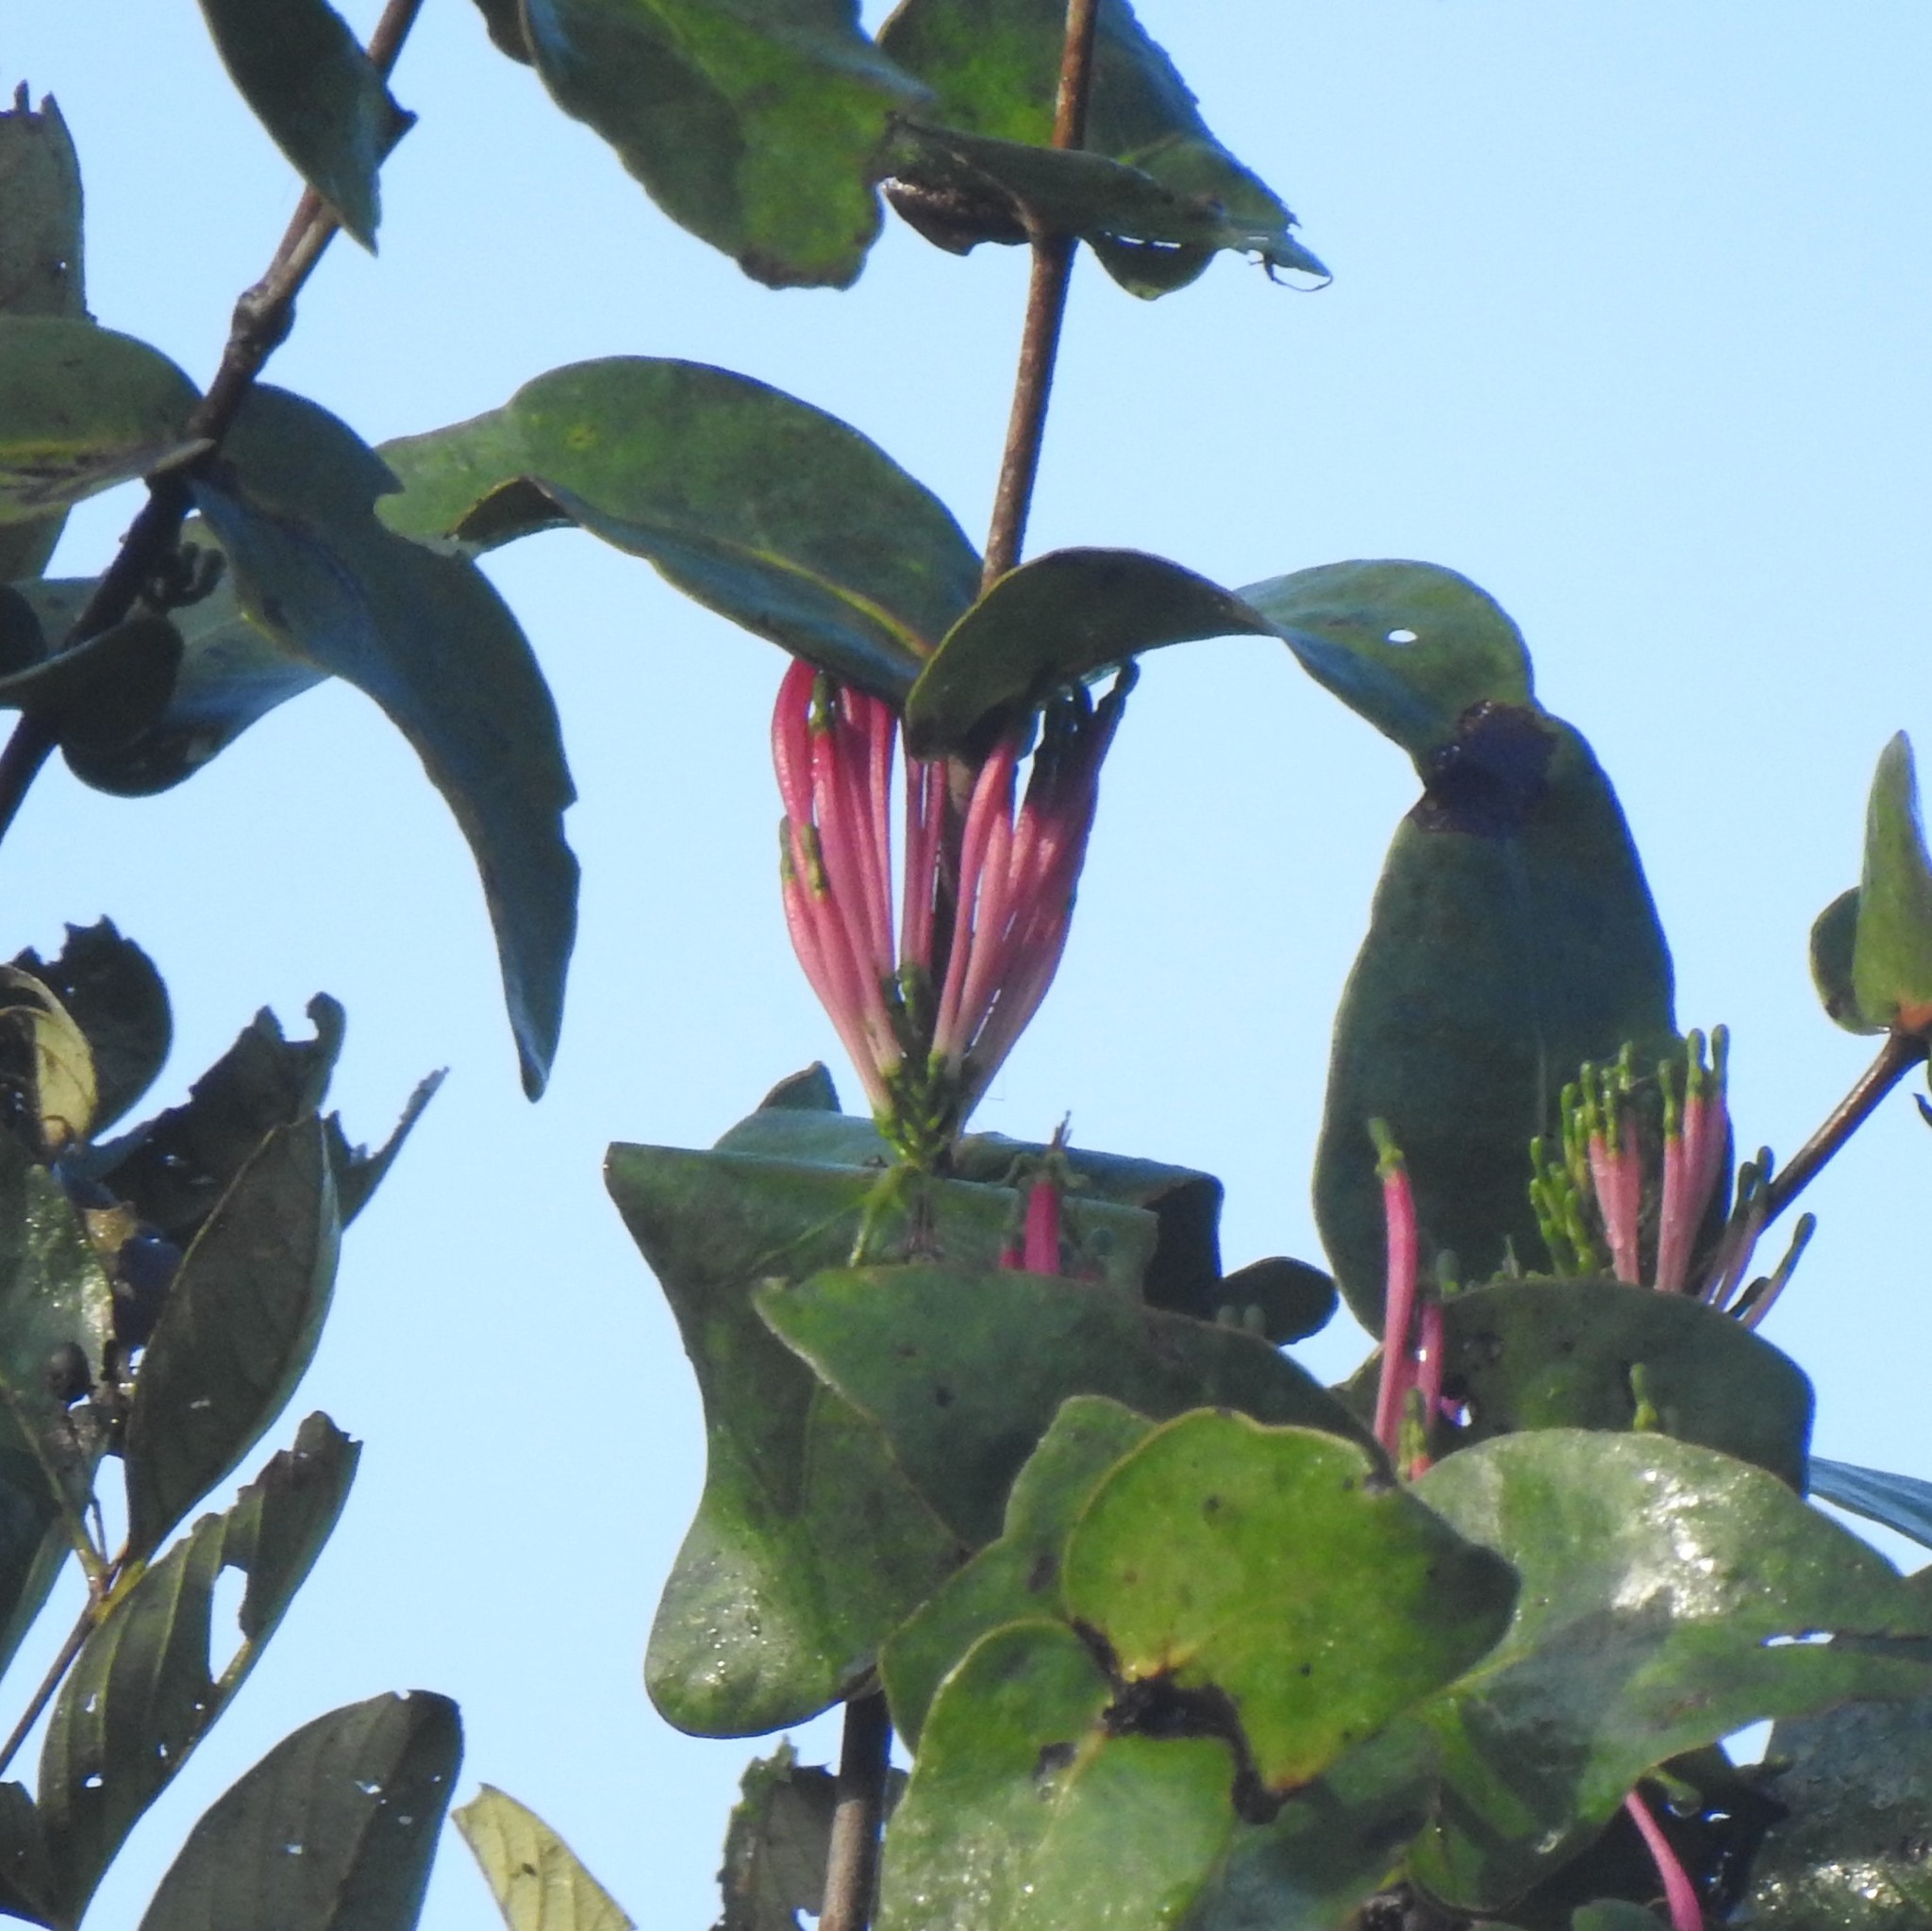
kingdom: Plantae
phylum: Tracheophyta
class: Magnoliopsida
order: Santalales
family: Loranthaceae
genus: Dendrophthoe
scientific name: Dendrophthoe falcata
